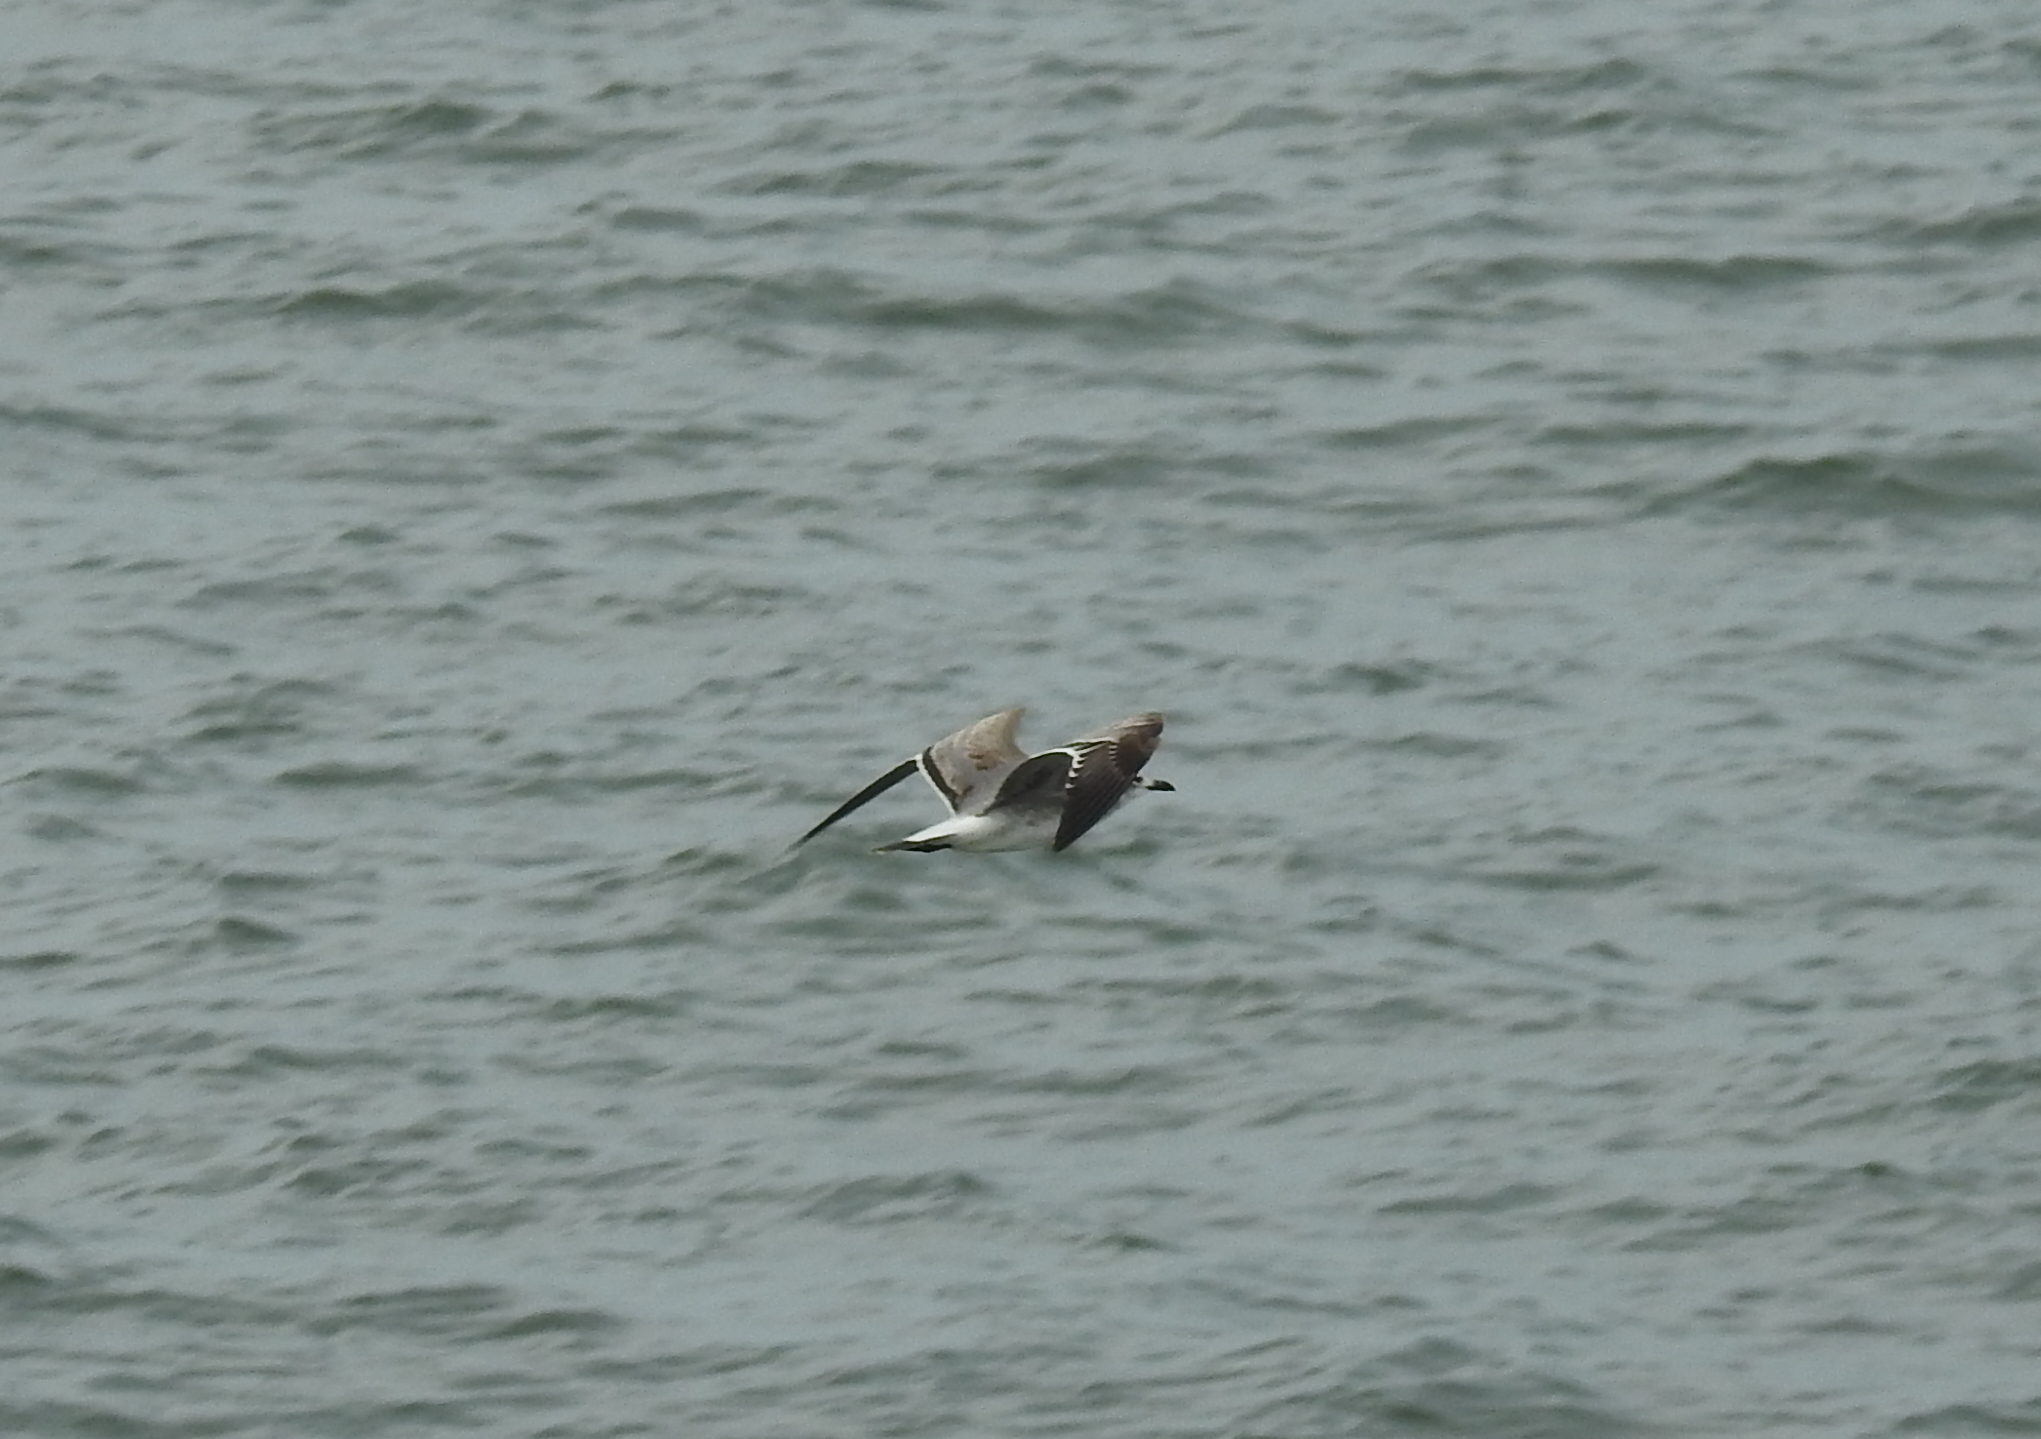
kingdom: Animalia
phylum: Chordata
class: Aves
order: Charadriiformes
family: Laridae
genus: Leucophaeus
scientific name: Leucophaeus atricilla
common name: Laughing gull
